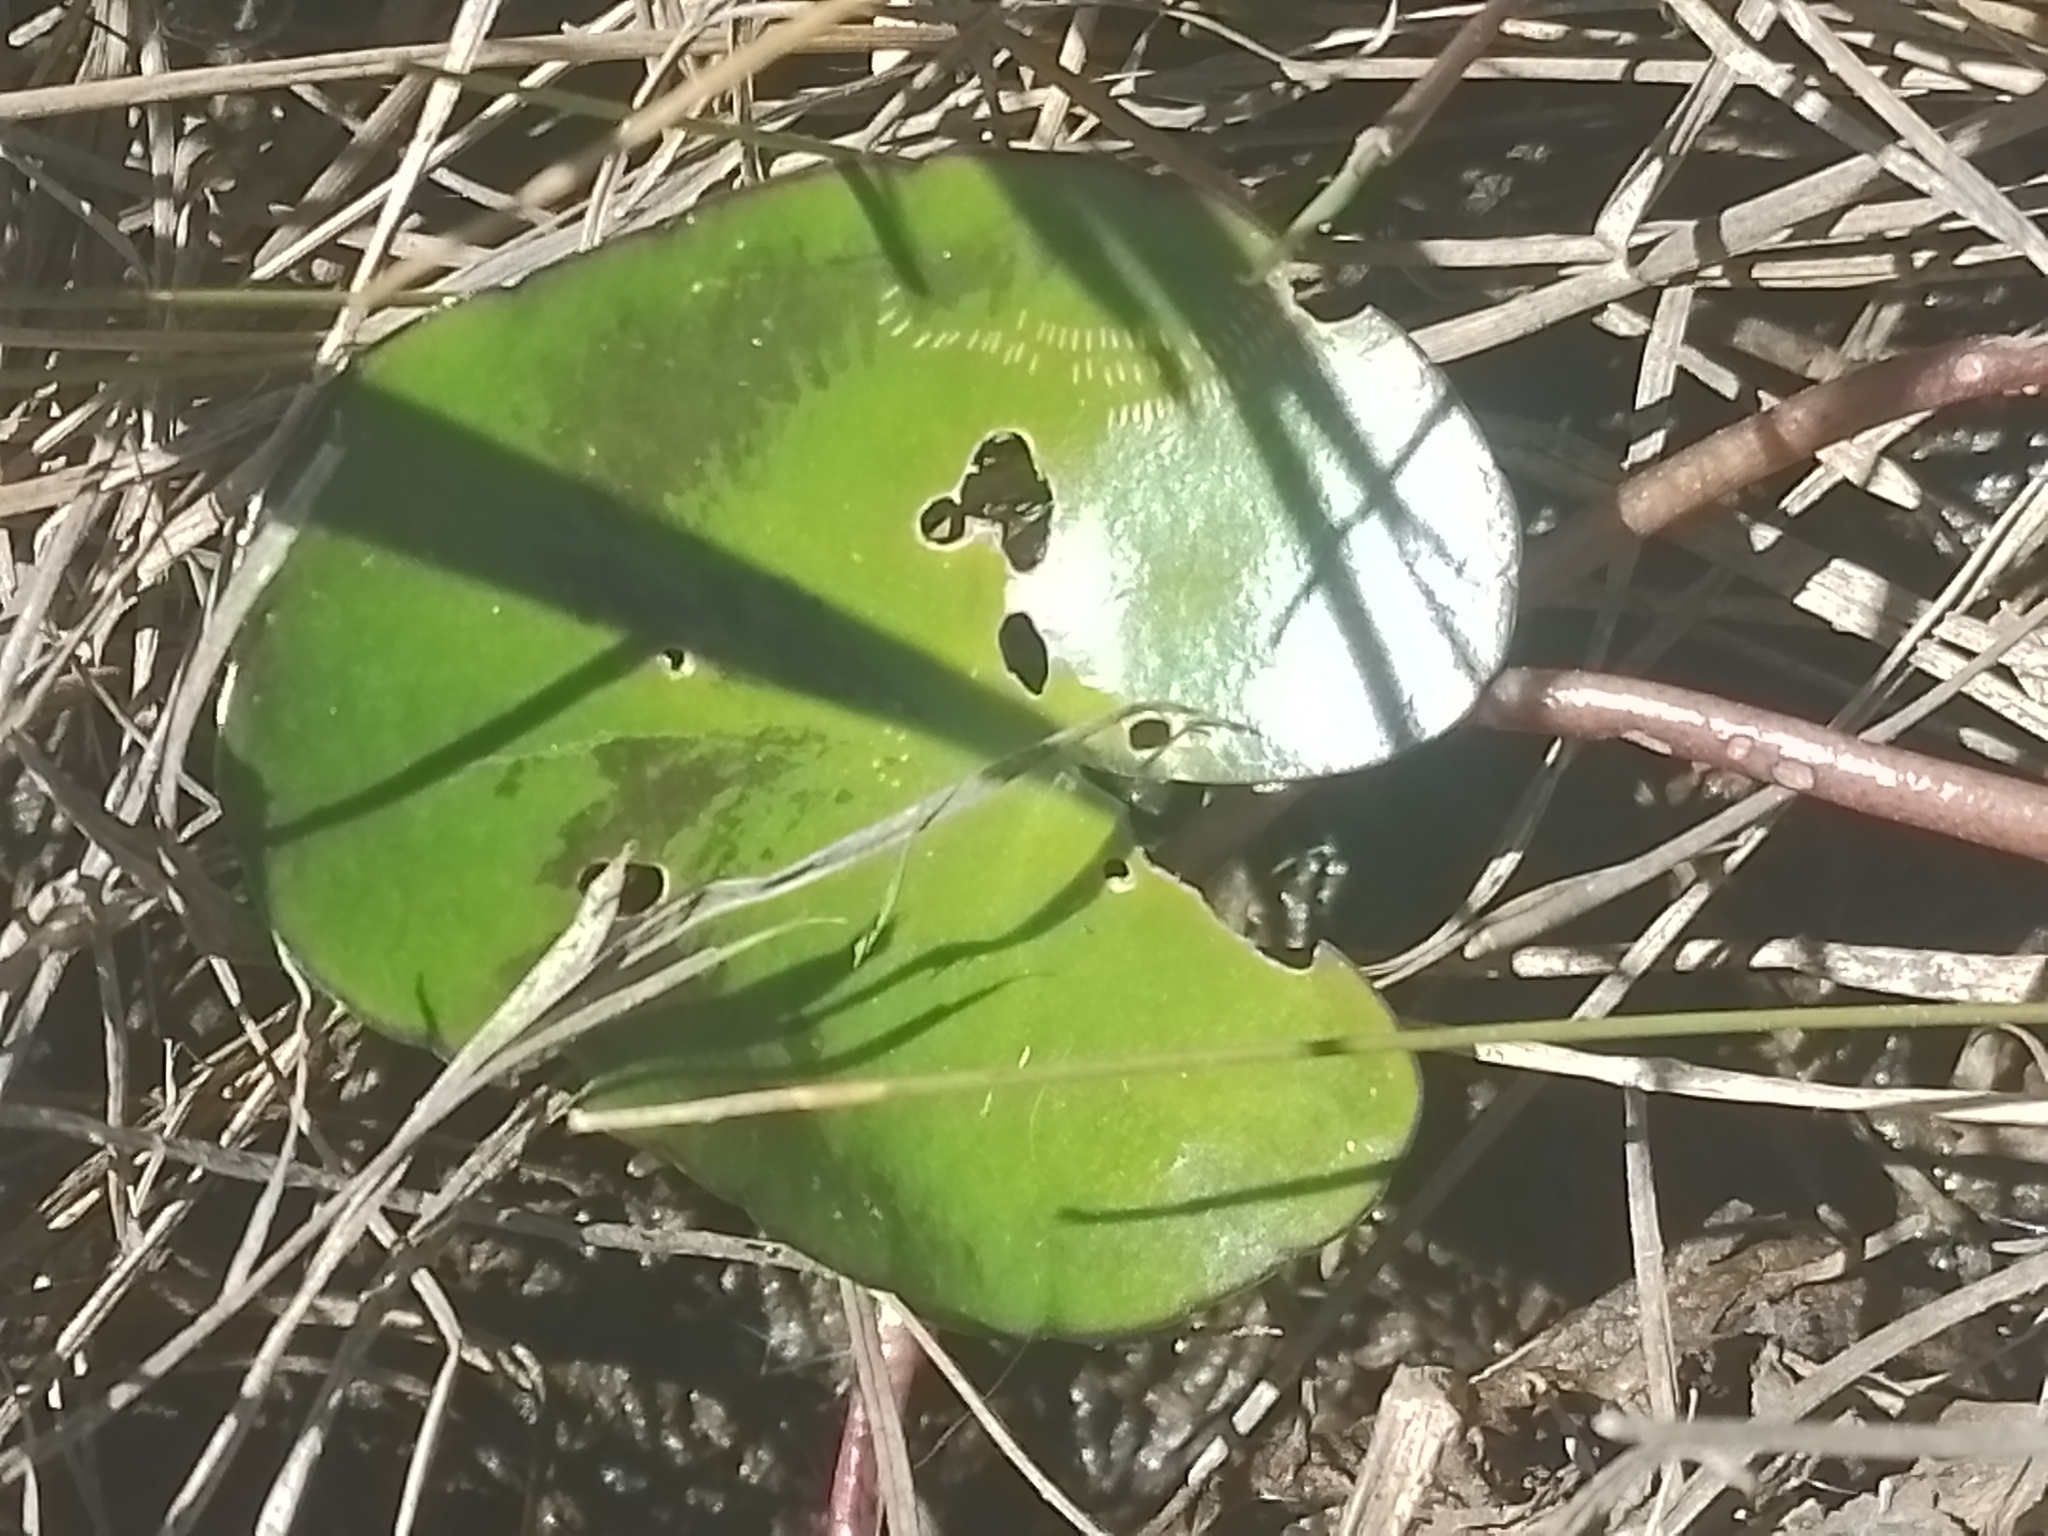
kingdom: Plantae
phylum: Tracheophyta
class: Magnoliopsida
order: Asterales
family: Menyanthaceae
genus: Nymphoides
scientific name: Nymphoides humboldtiana
